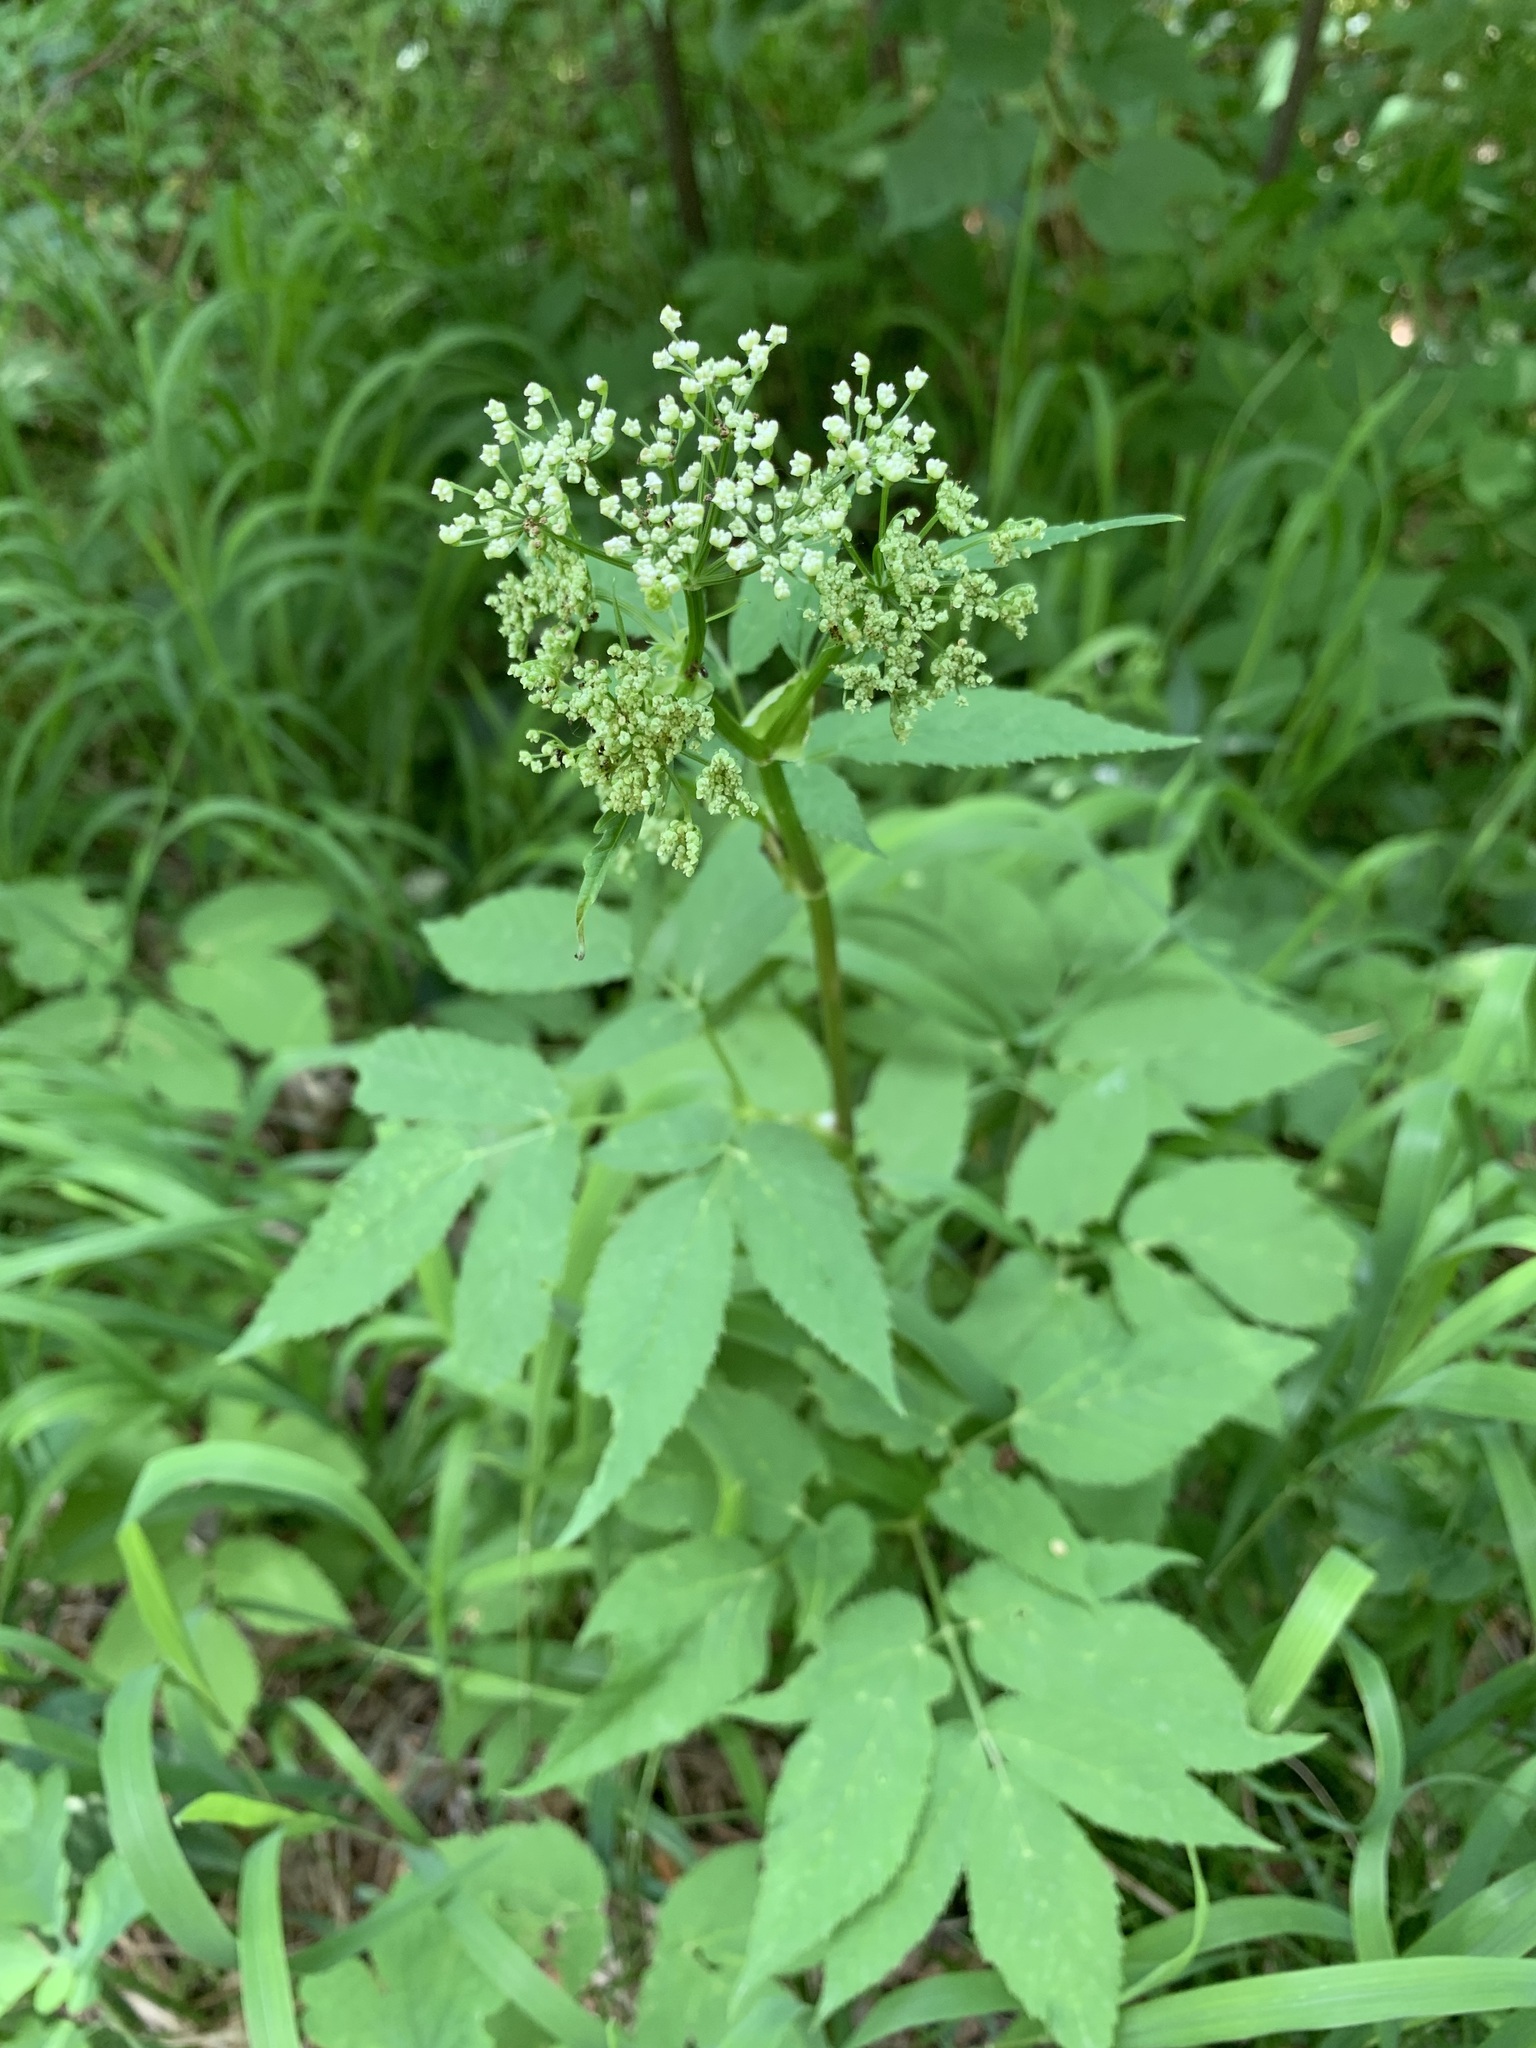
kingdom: Plantae
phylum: Tracheophyta
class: Magnoliopsida
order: Apiales
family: Apiaceae
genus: Aegopodium
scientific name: Aegopodium podagraria
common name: Ground-elder
